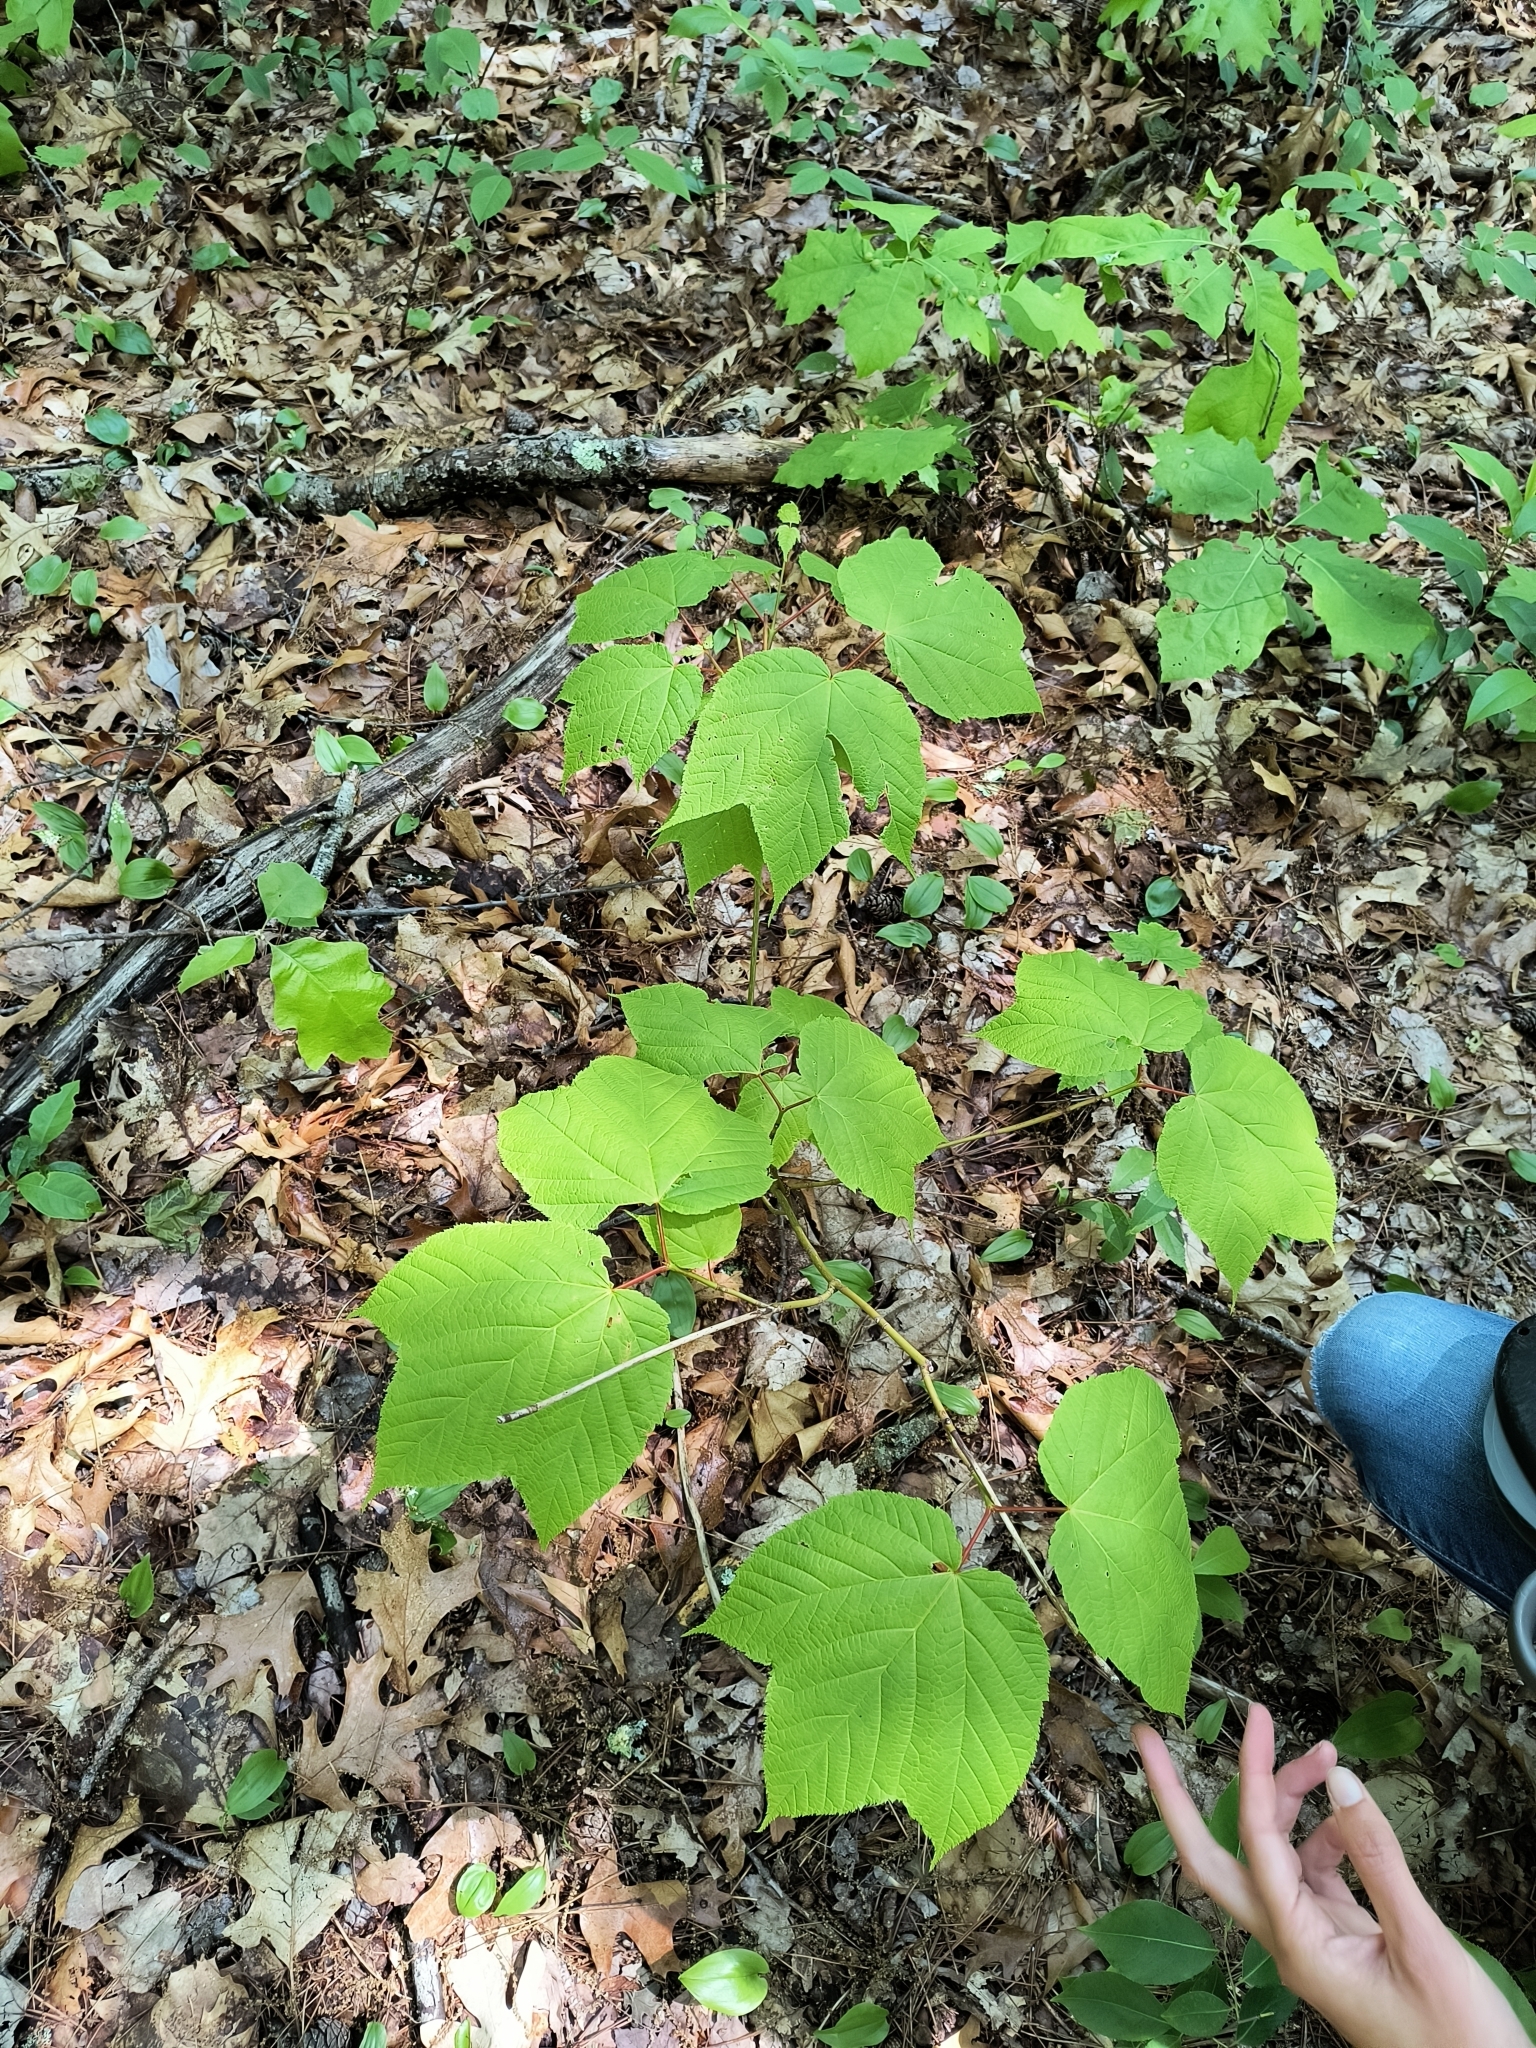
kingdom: Plantae
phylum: Tracheophyta
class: Magnoliopsida
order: Sapindales
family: Sapindaceae
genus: Acer
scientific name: Acer pensylvanicum
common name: Moosewood
